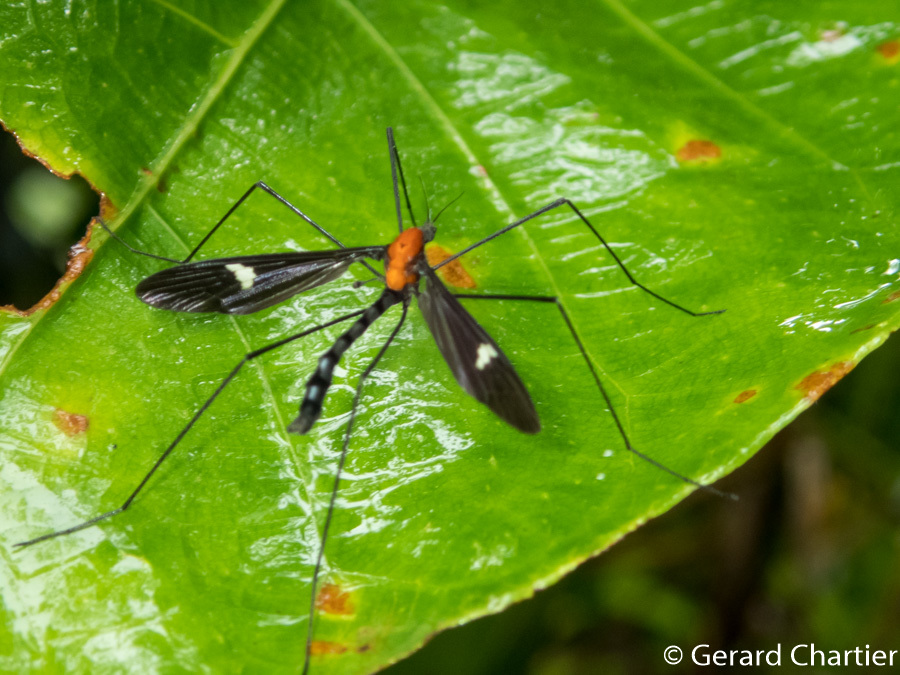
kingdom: Animalia
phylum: Arthropoda
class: Insecta
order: Diptera
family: Limoniidae
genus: Hexatoma
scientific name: Hexatoma fenestrata
